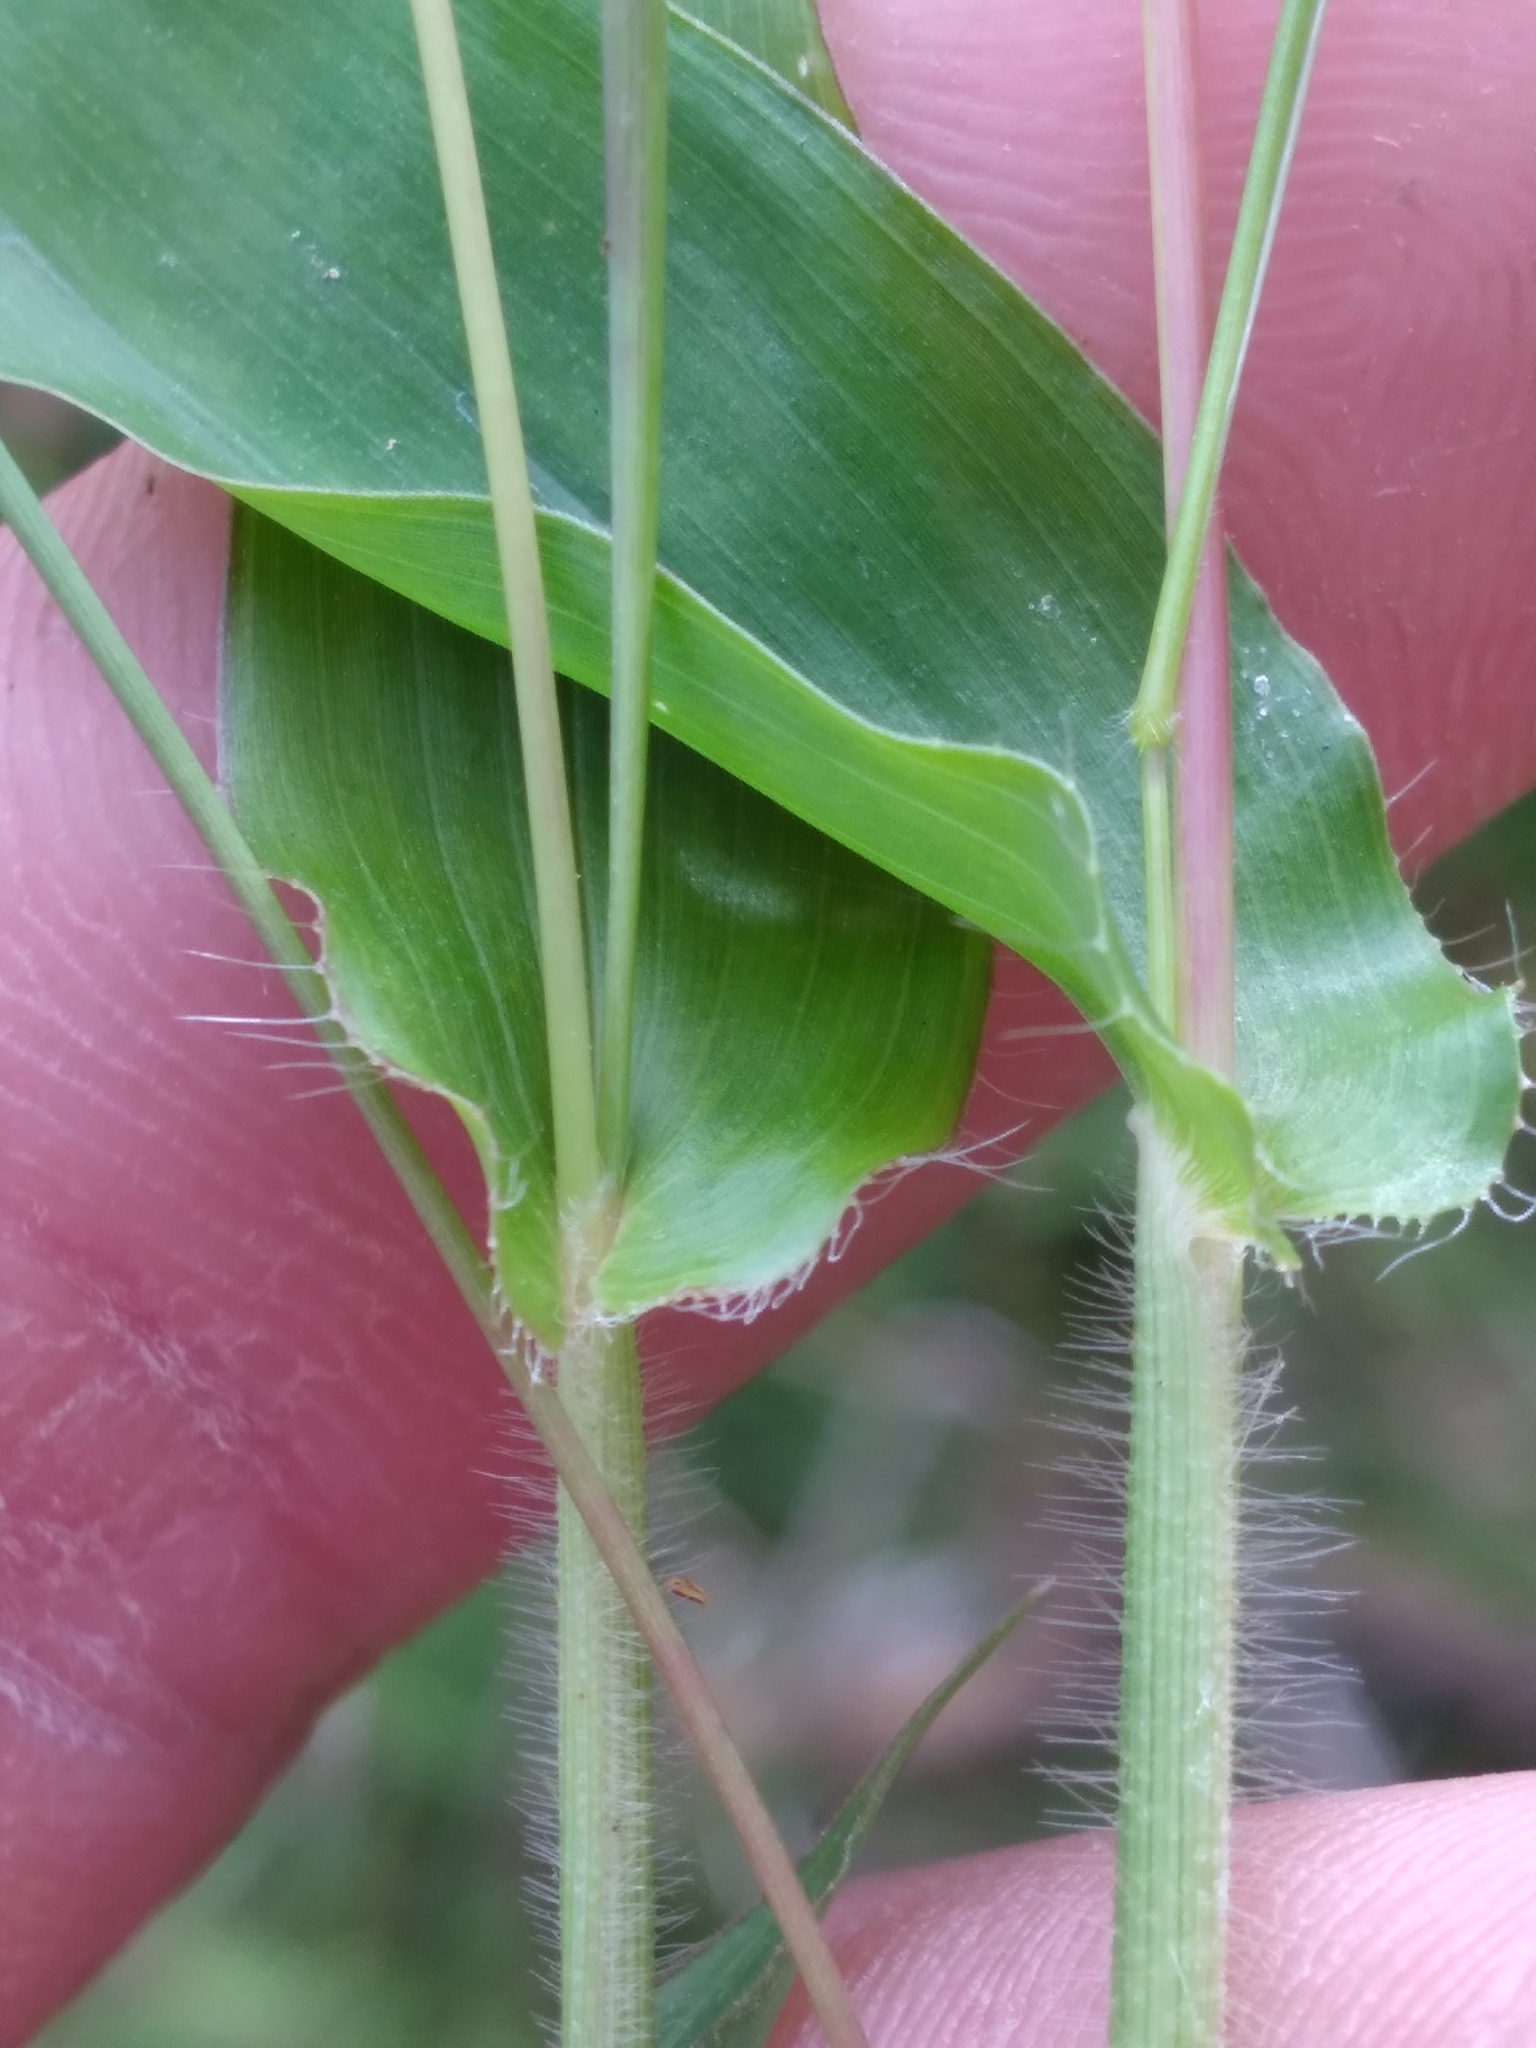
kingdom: Plantae
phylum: Tracheophyta
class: Liliopsida
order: Poales
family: Poaceae
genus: Arthraxon
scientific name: Arthraxon hispidus
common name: Small carpgrass
